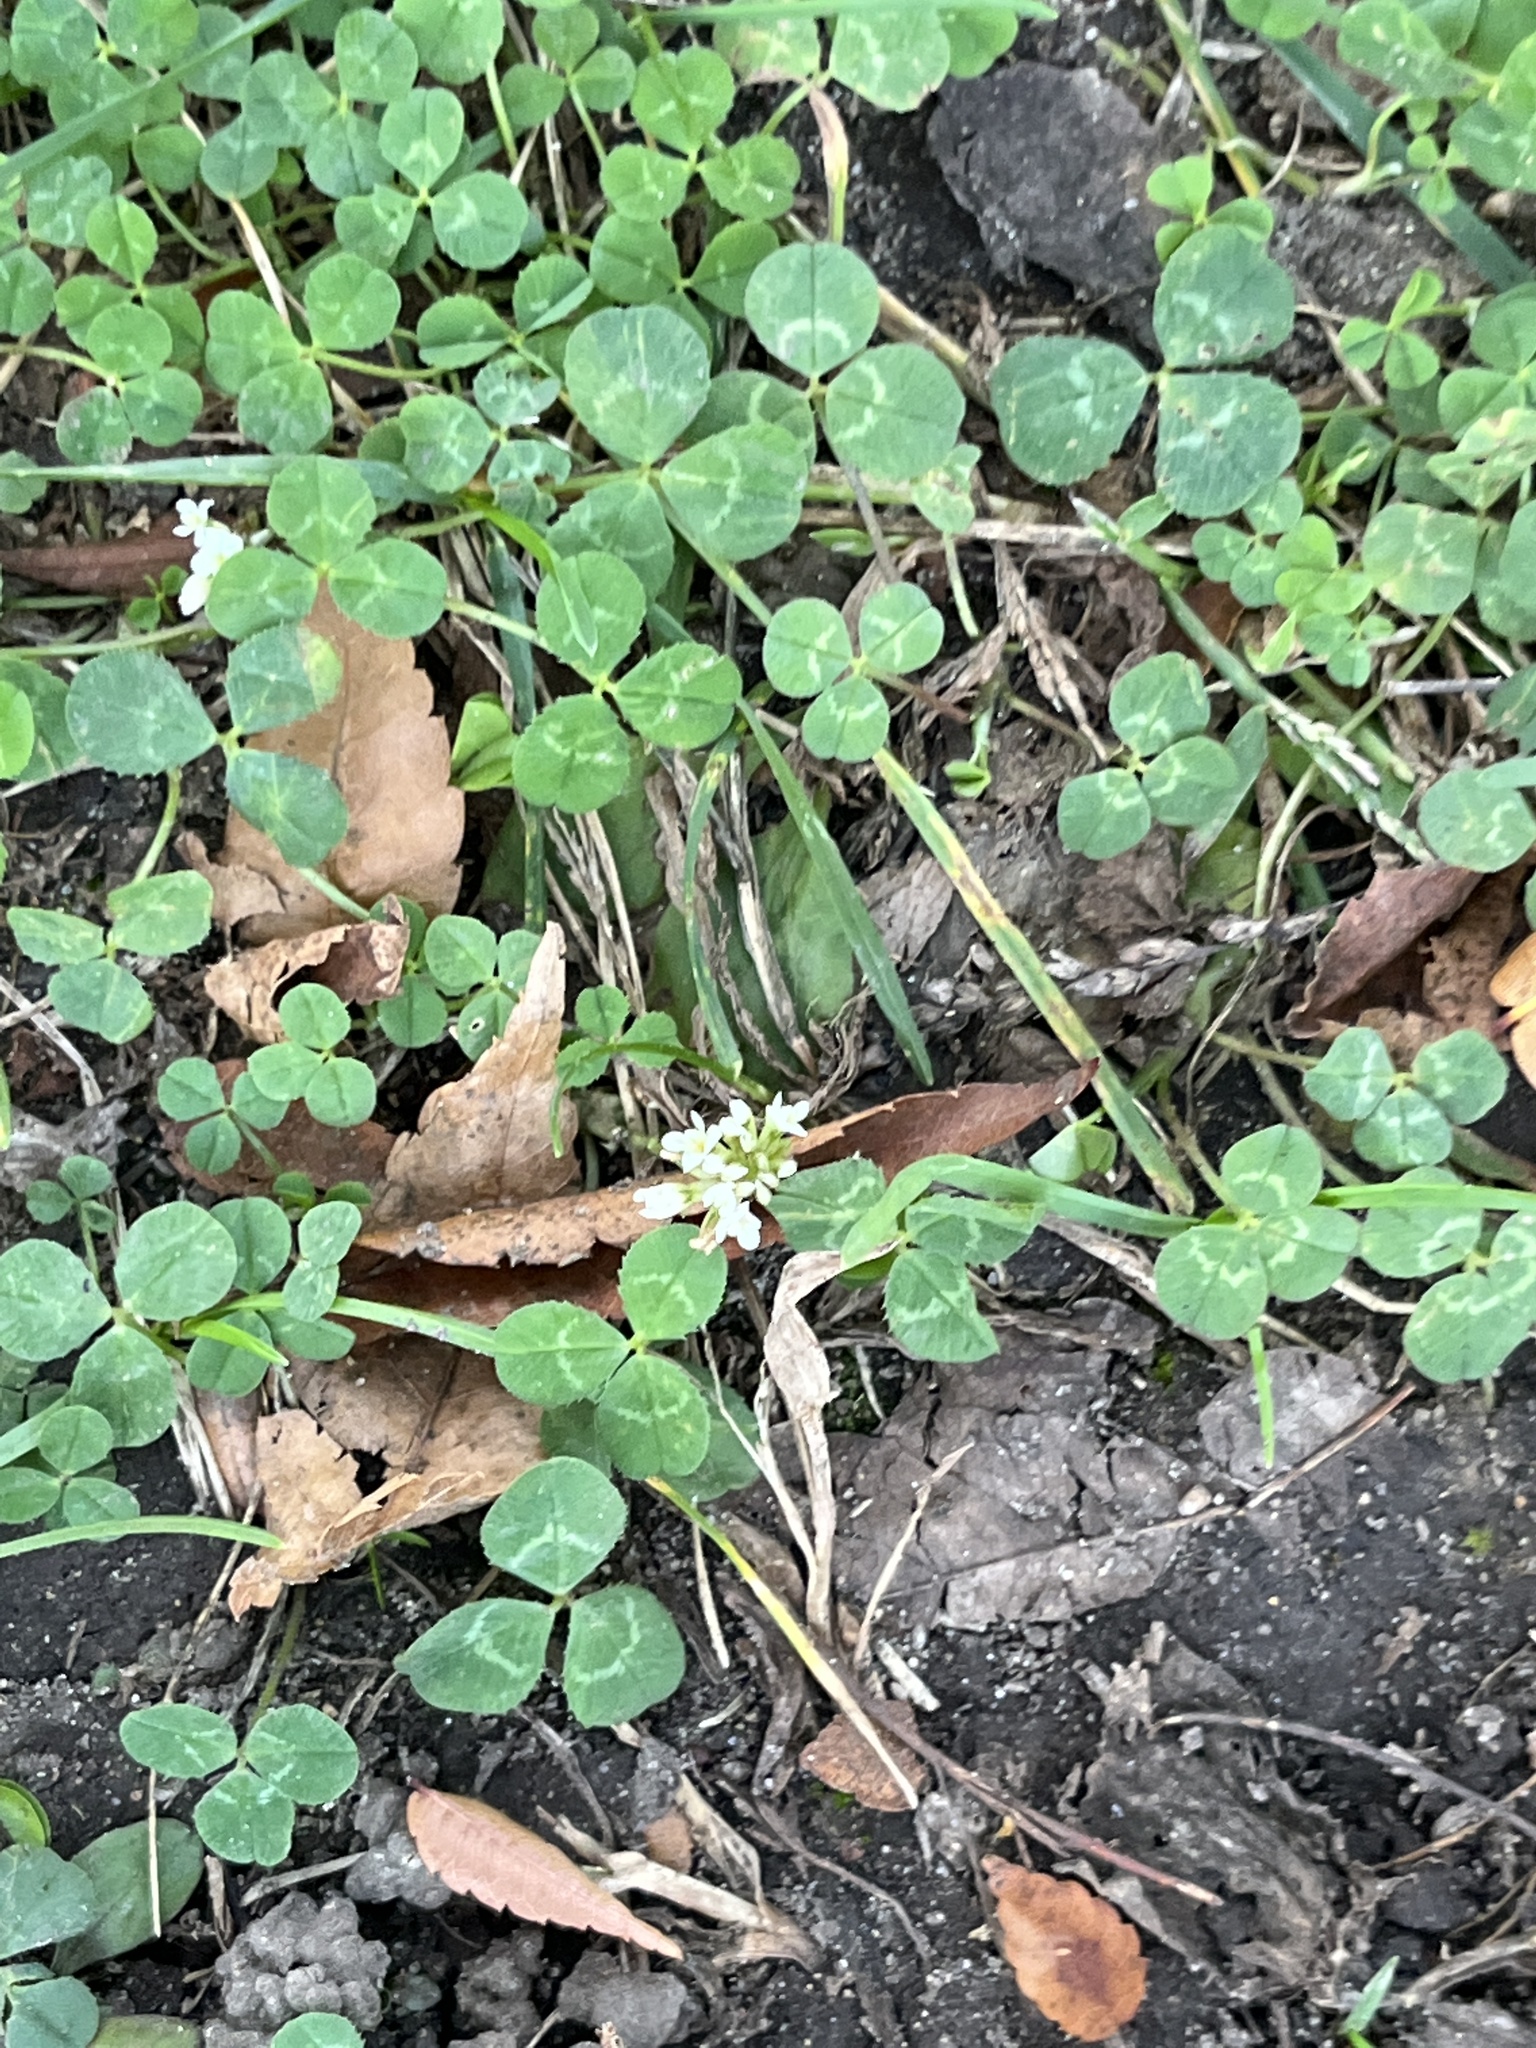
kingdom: Plantae
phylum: Tracheophyta
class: Magnoliopsida
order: Fabales
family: Fabaceae
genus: Trifolium
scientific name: Trifolium repens
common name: White clover
